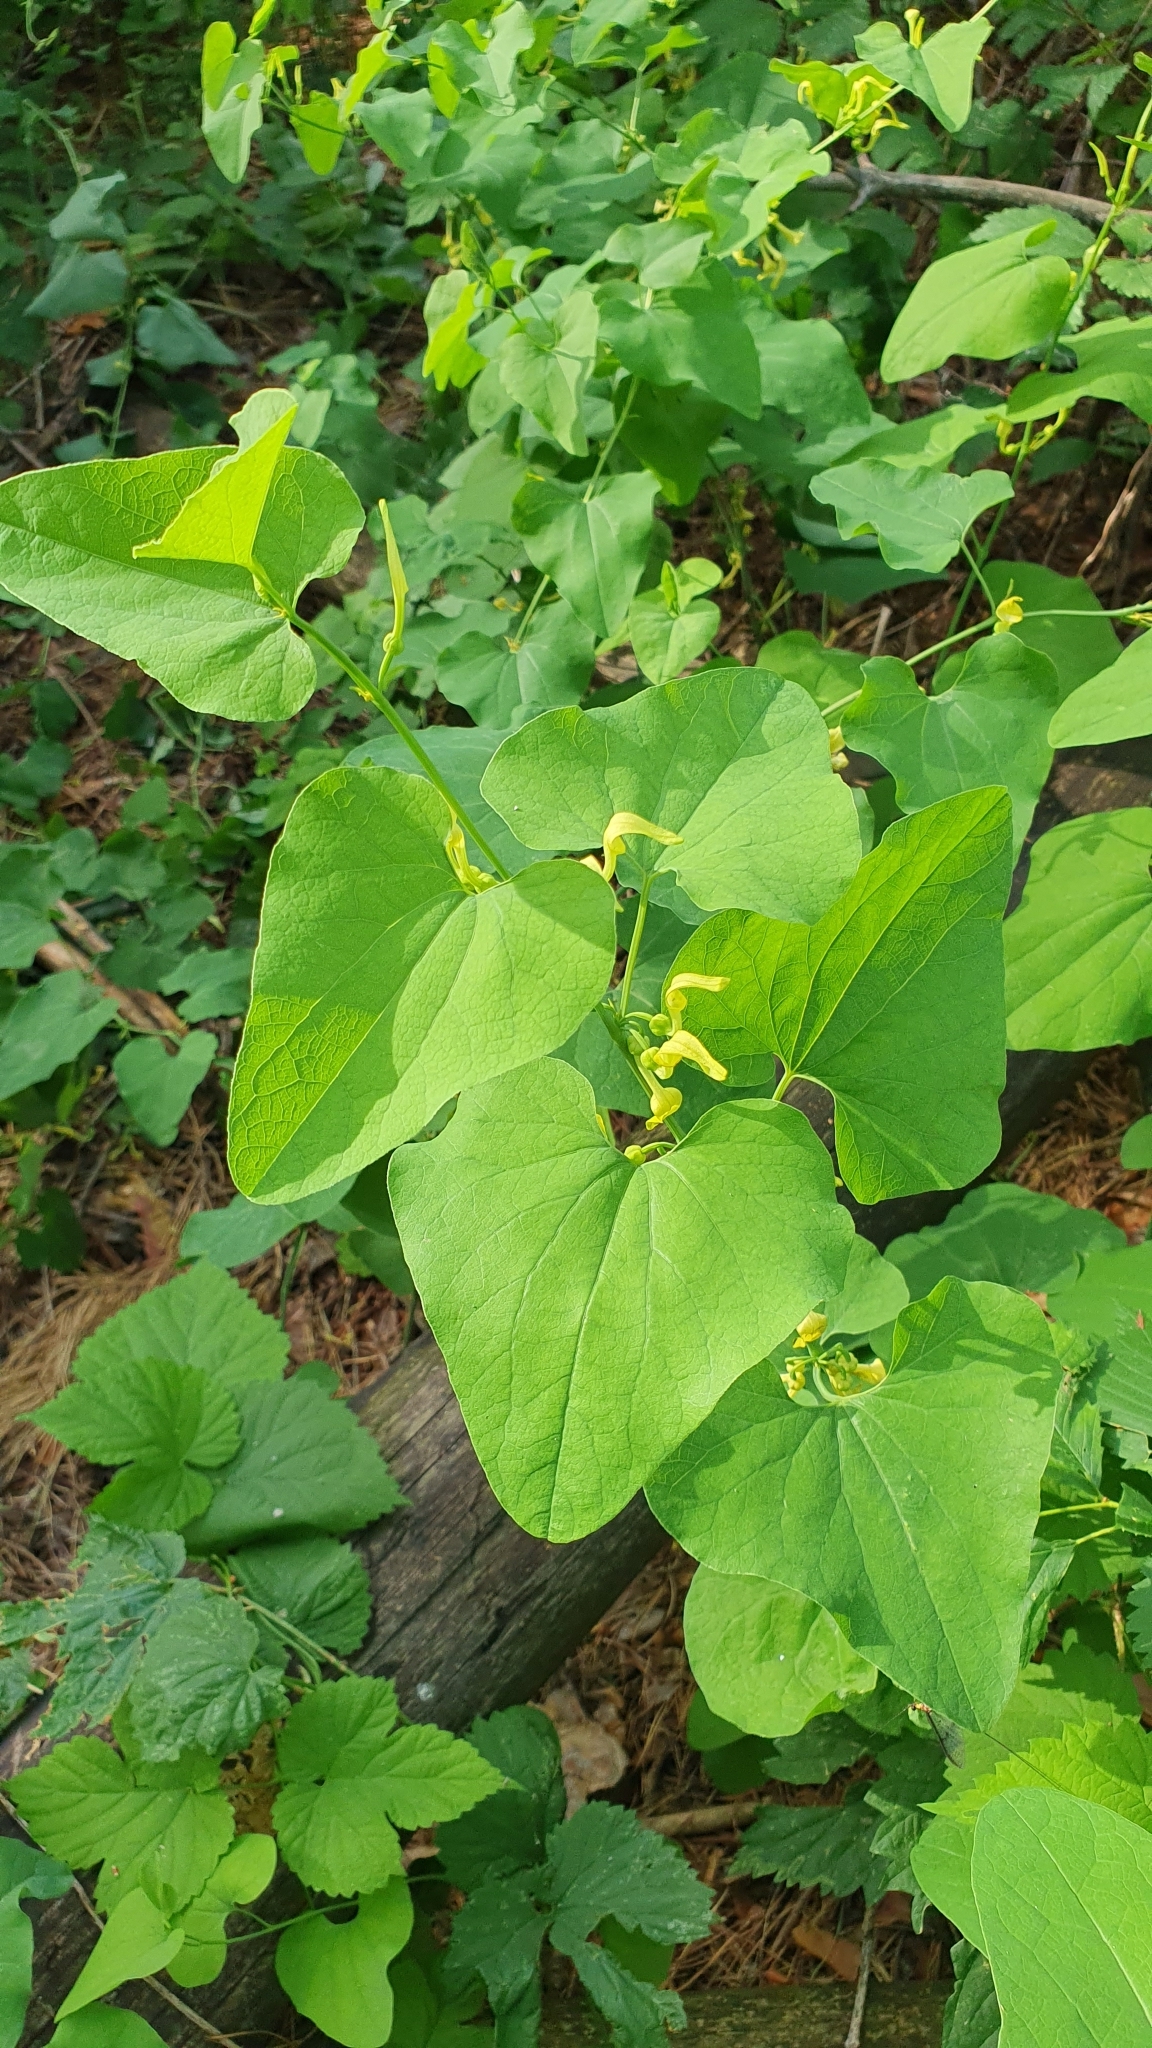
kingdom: Plantae
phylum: Tracheophyta
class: Magnoliopsida
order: Piperales
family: Aristolochiaceae
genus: Aristolochia
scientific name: Aristolochia clematitis
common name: Birthwort
